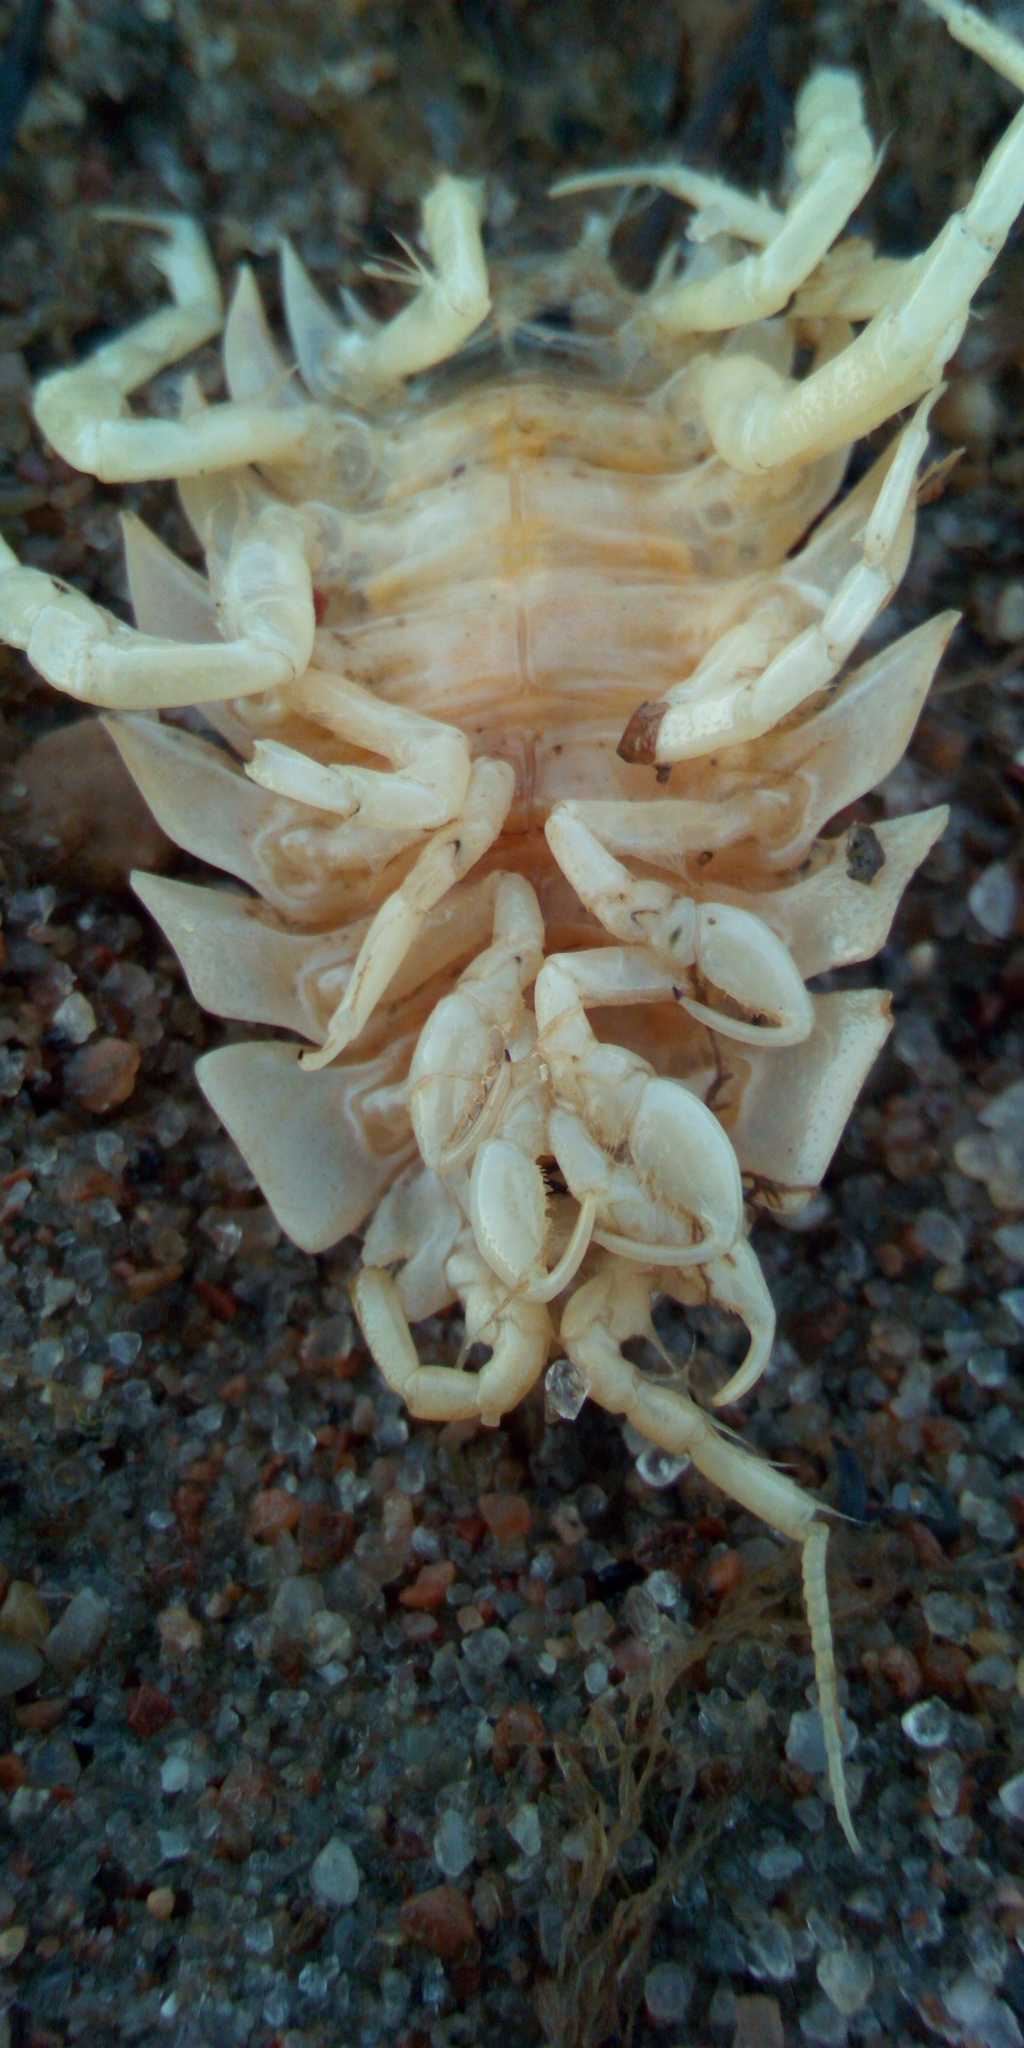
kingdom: Animalia
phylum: Arthropoda
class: Malacostraca
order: Isopoda
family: Chaetiliidae
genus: Saduria
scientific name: Saduria entomon
